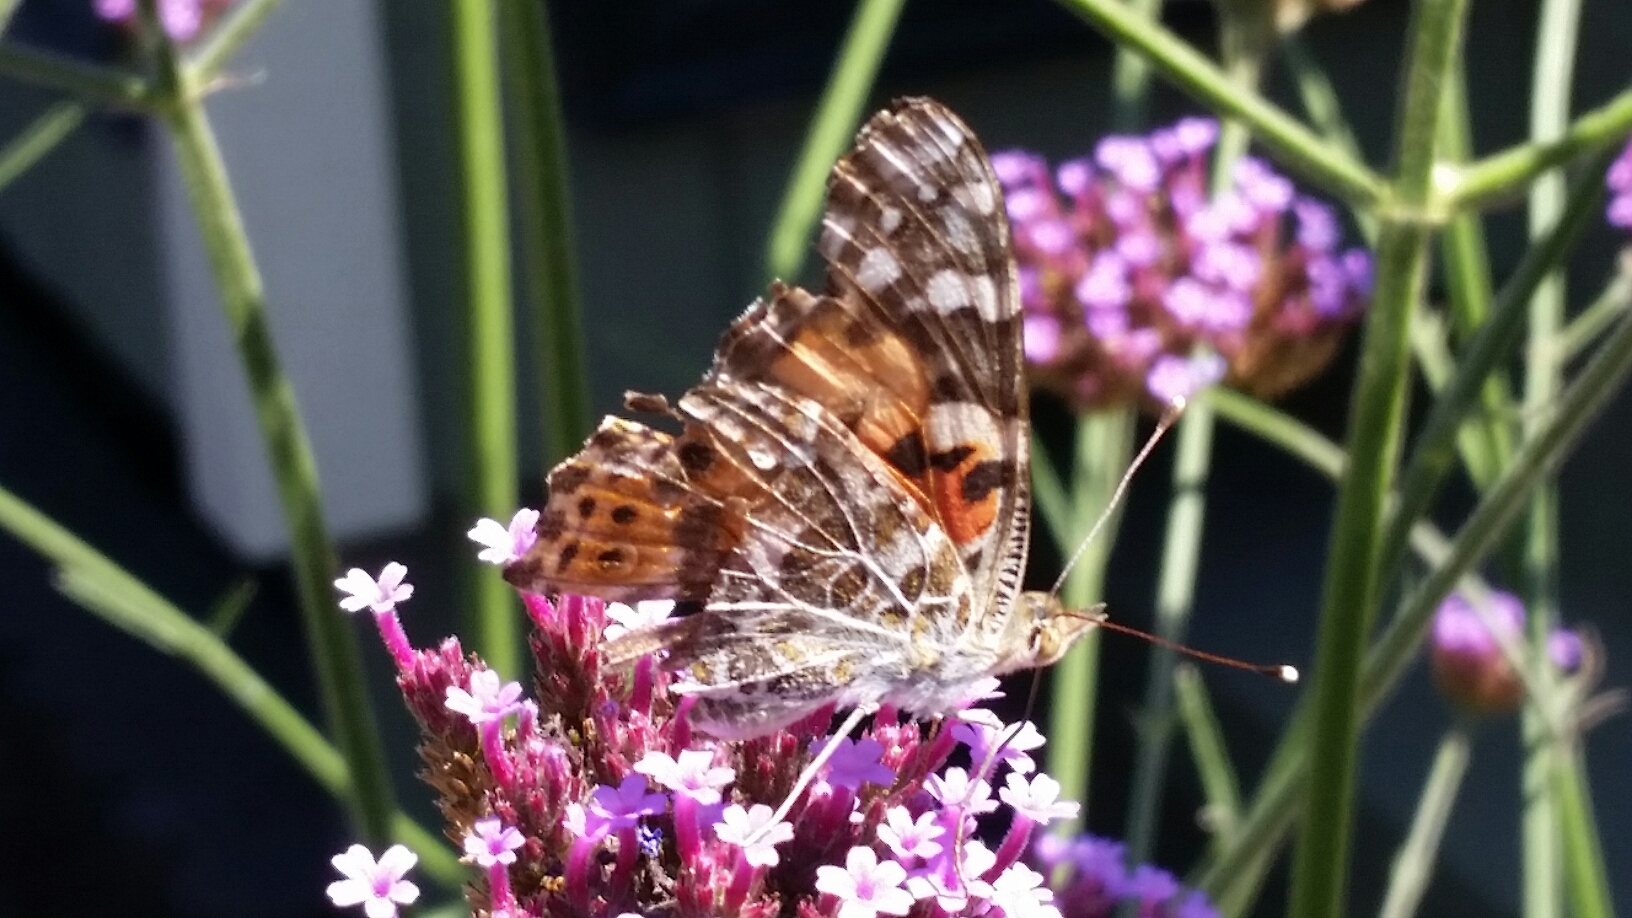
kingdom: Animalia
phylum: Arthropoda
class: Insecta
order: Lepidoptera
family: Nymphalidae
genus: Vanessa
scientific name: Vanessa cardui
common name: Painted lady
